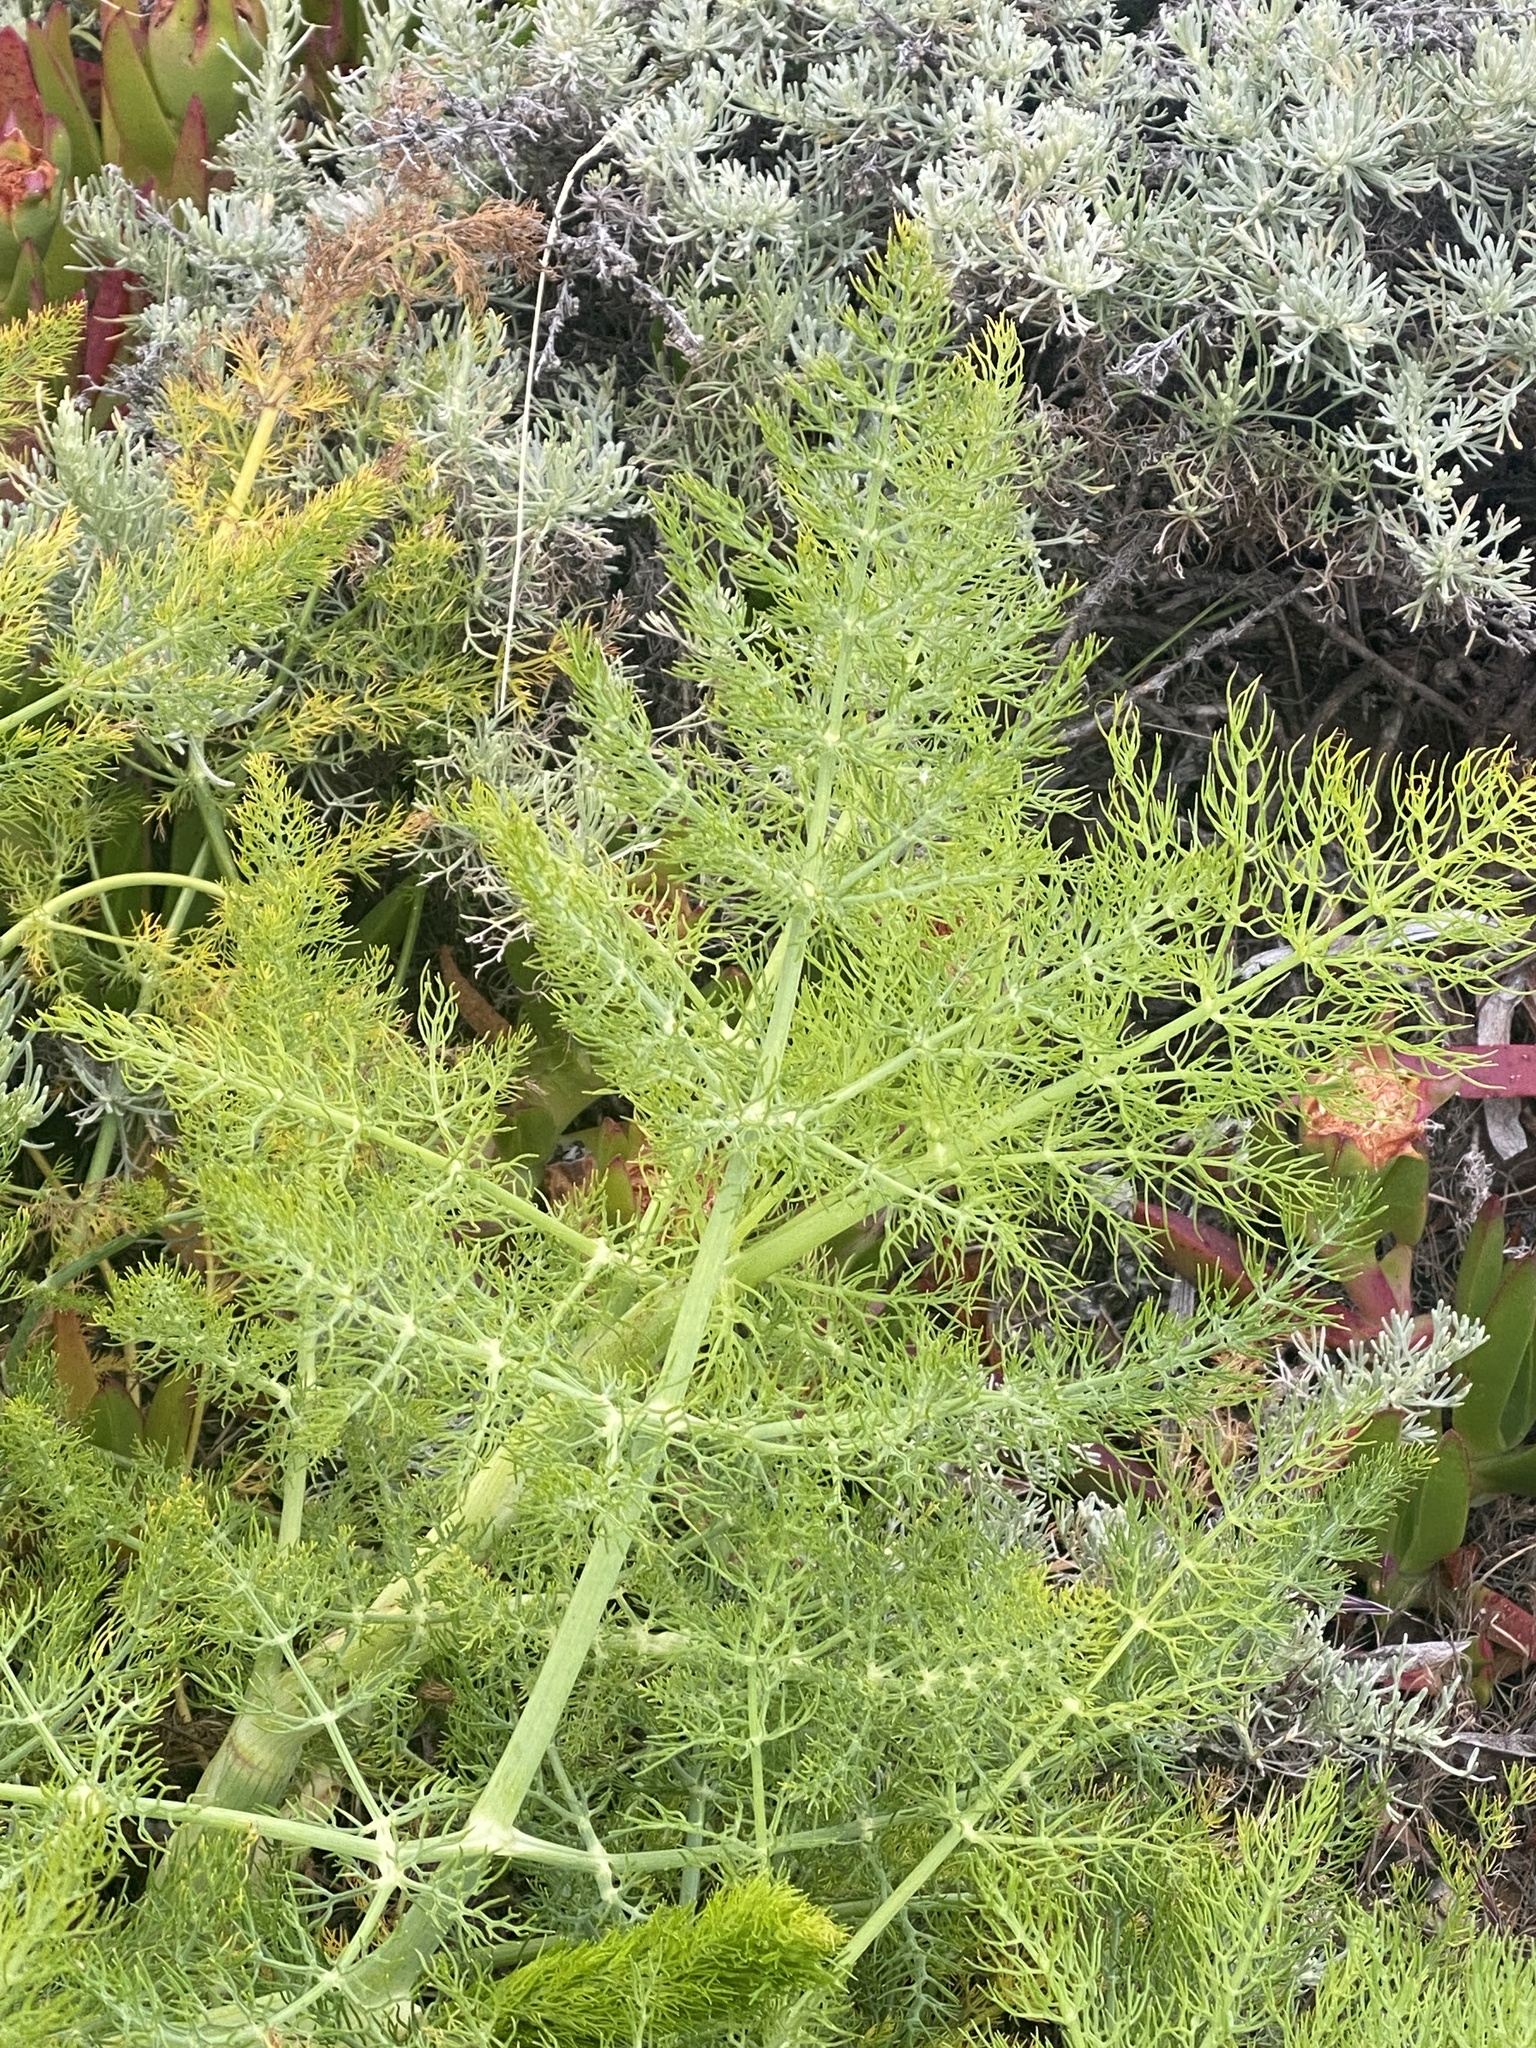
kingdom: Plantae
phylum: Tracheophyta
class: Magnoliopsida
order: Apiales
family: Apiaceae
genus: Foeniculum
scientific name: Foeniculum vulgare
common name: Fennel
